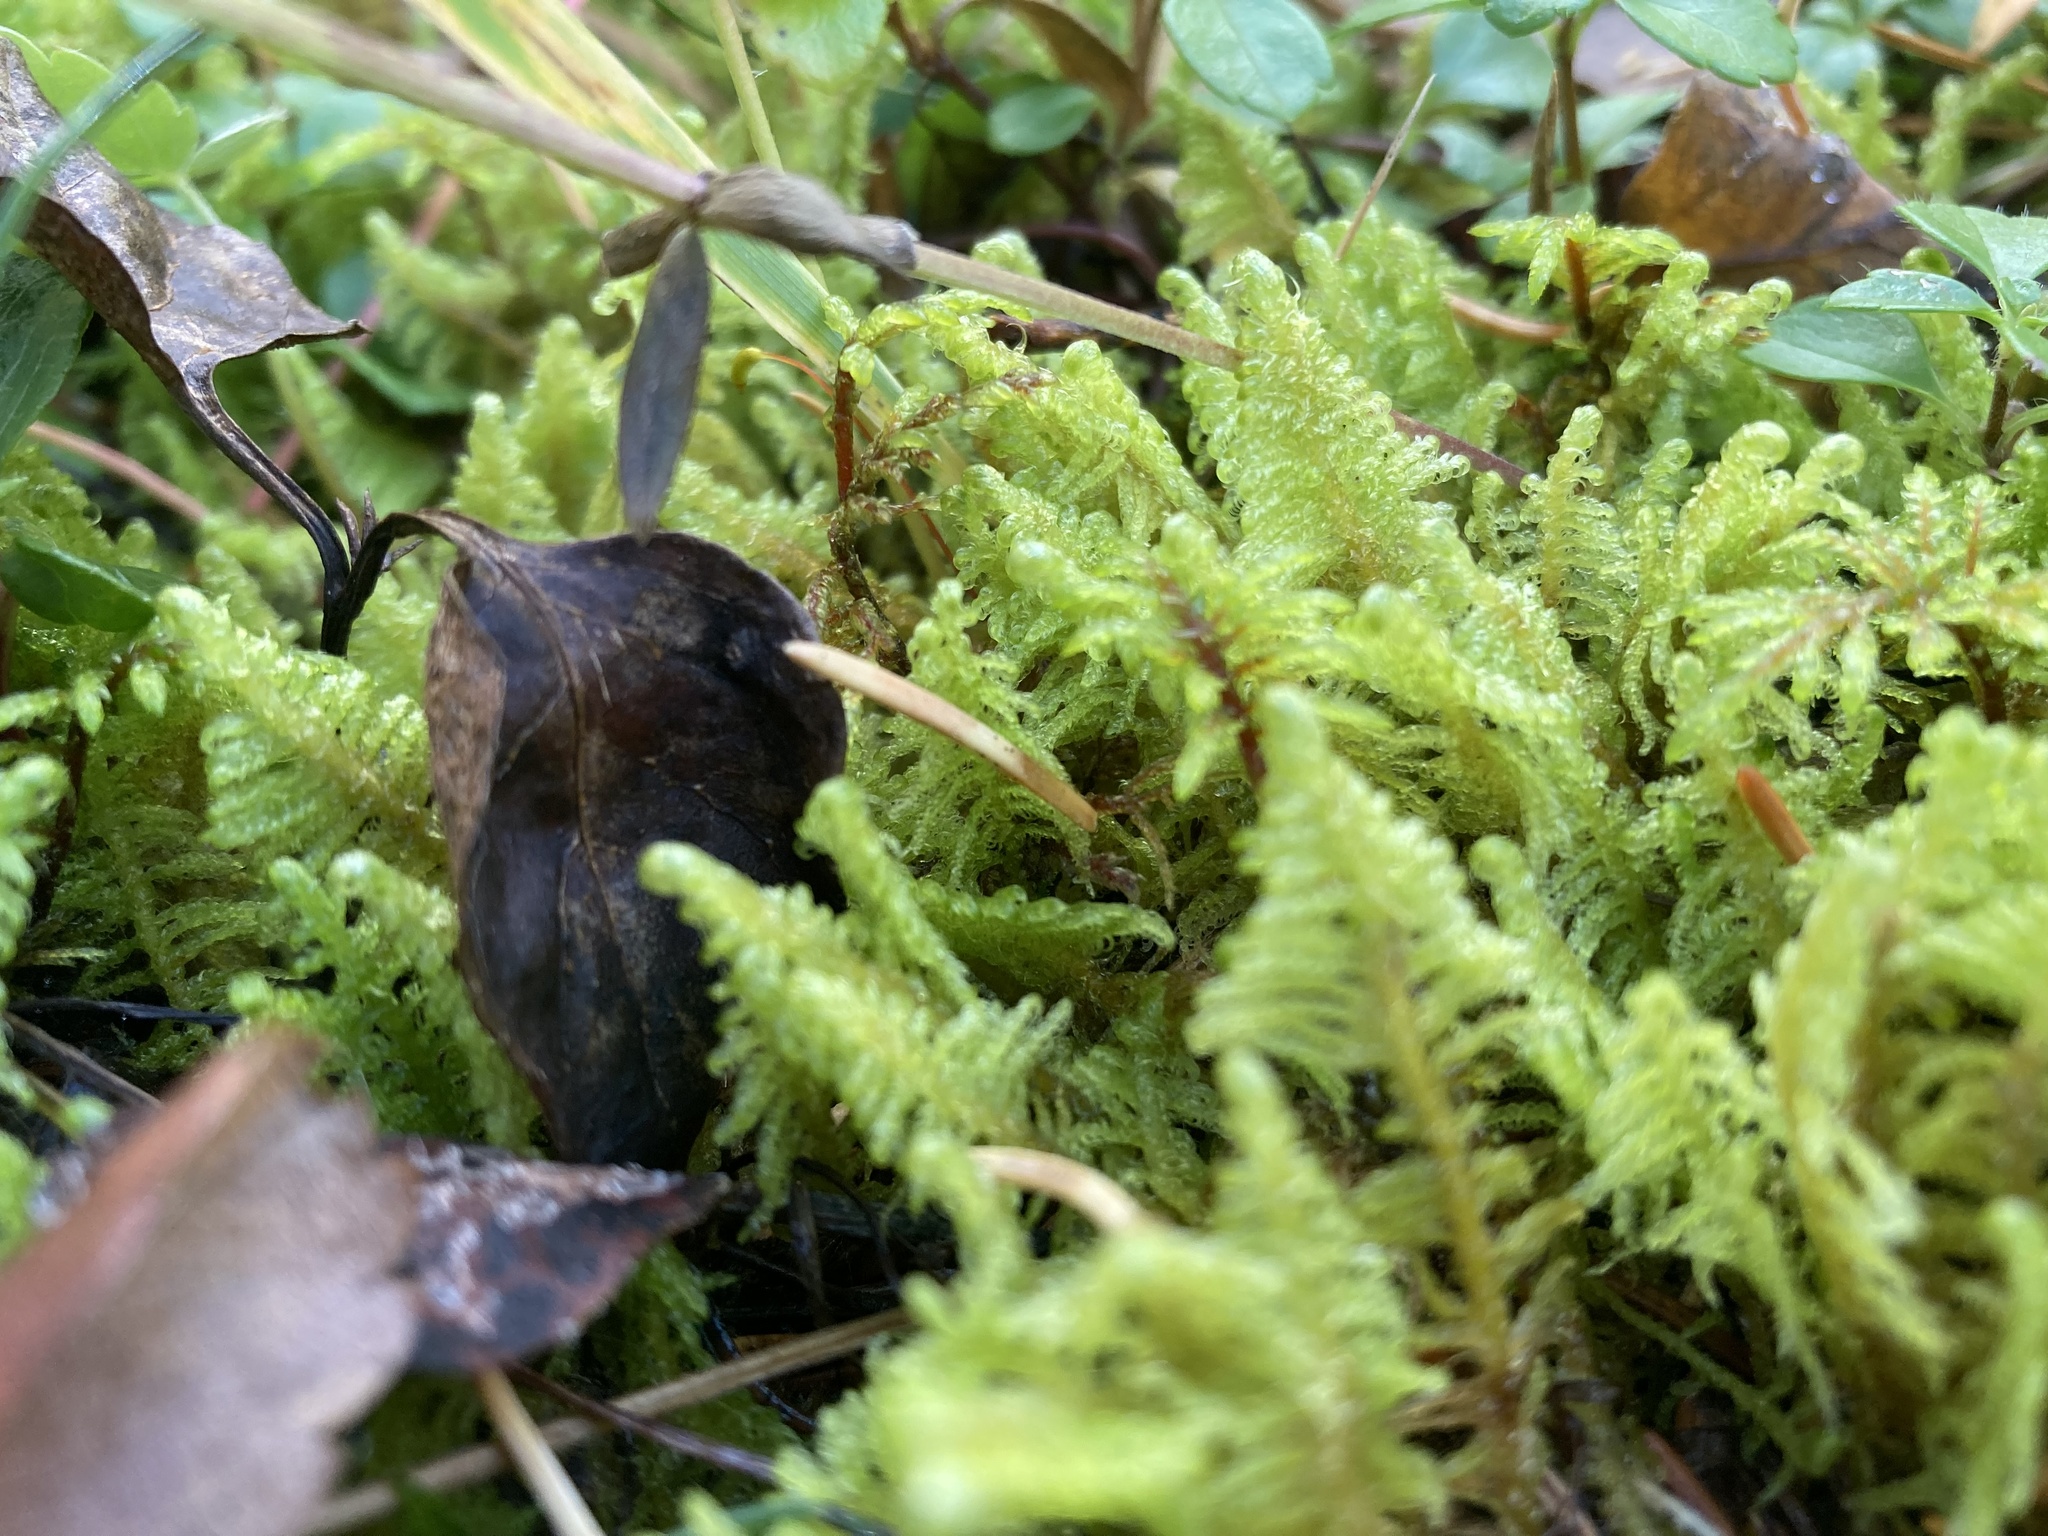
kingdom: Plantae
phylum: Bryophyta
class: Bryopsida
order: Hypnales
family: Pylaisiaceae
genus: Ptilium
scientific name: Ptilium crista-castrensis
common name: Knight's plume moss
